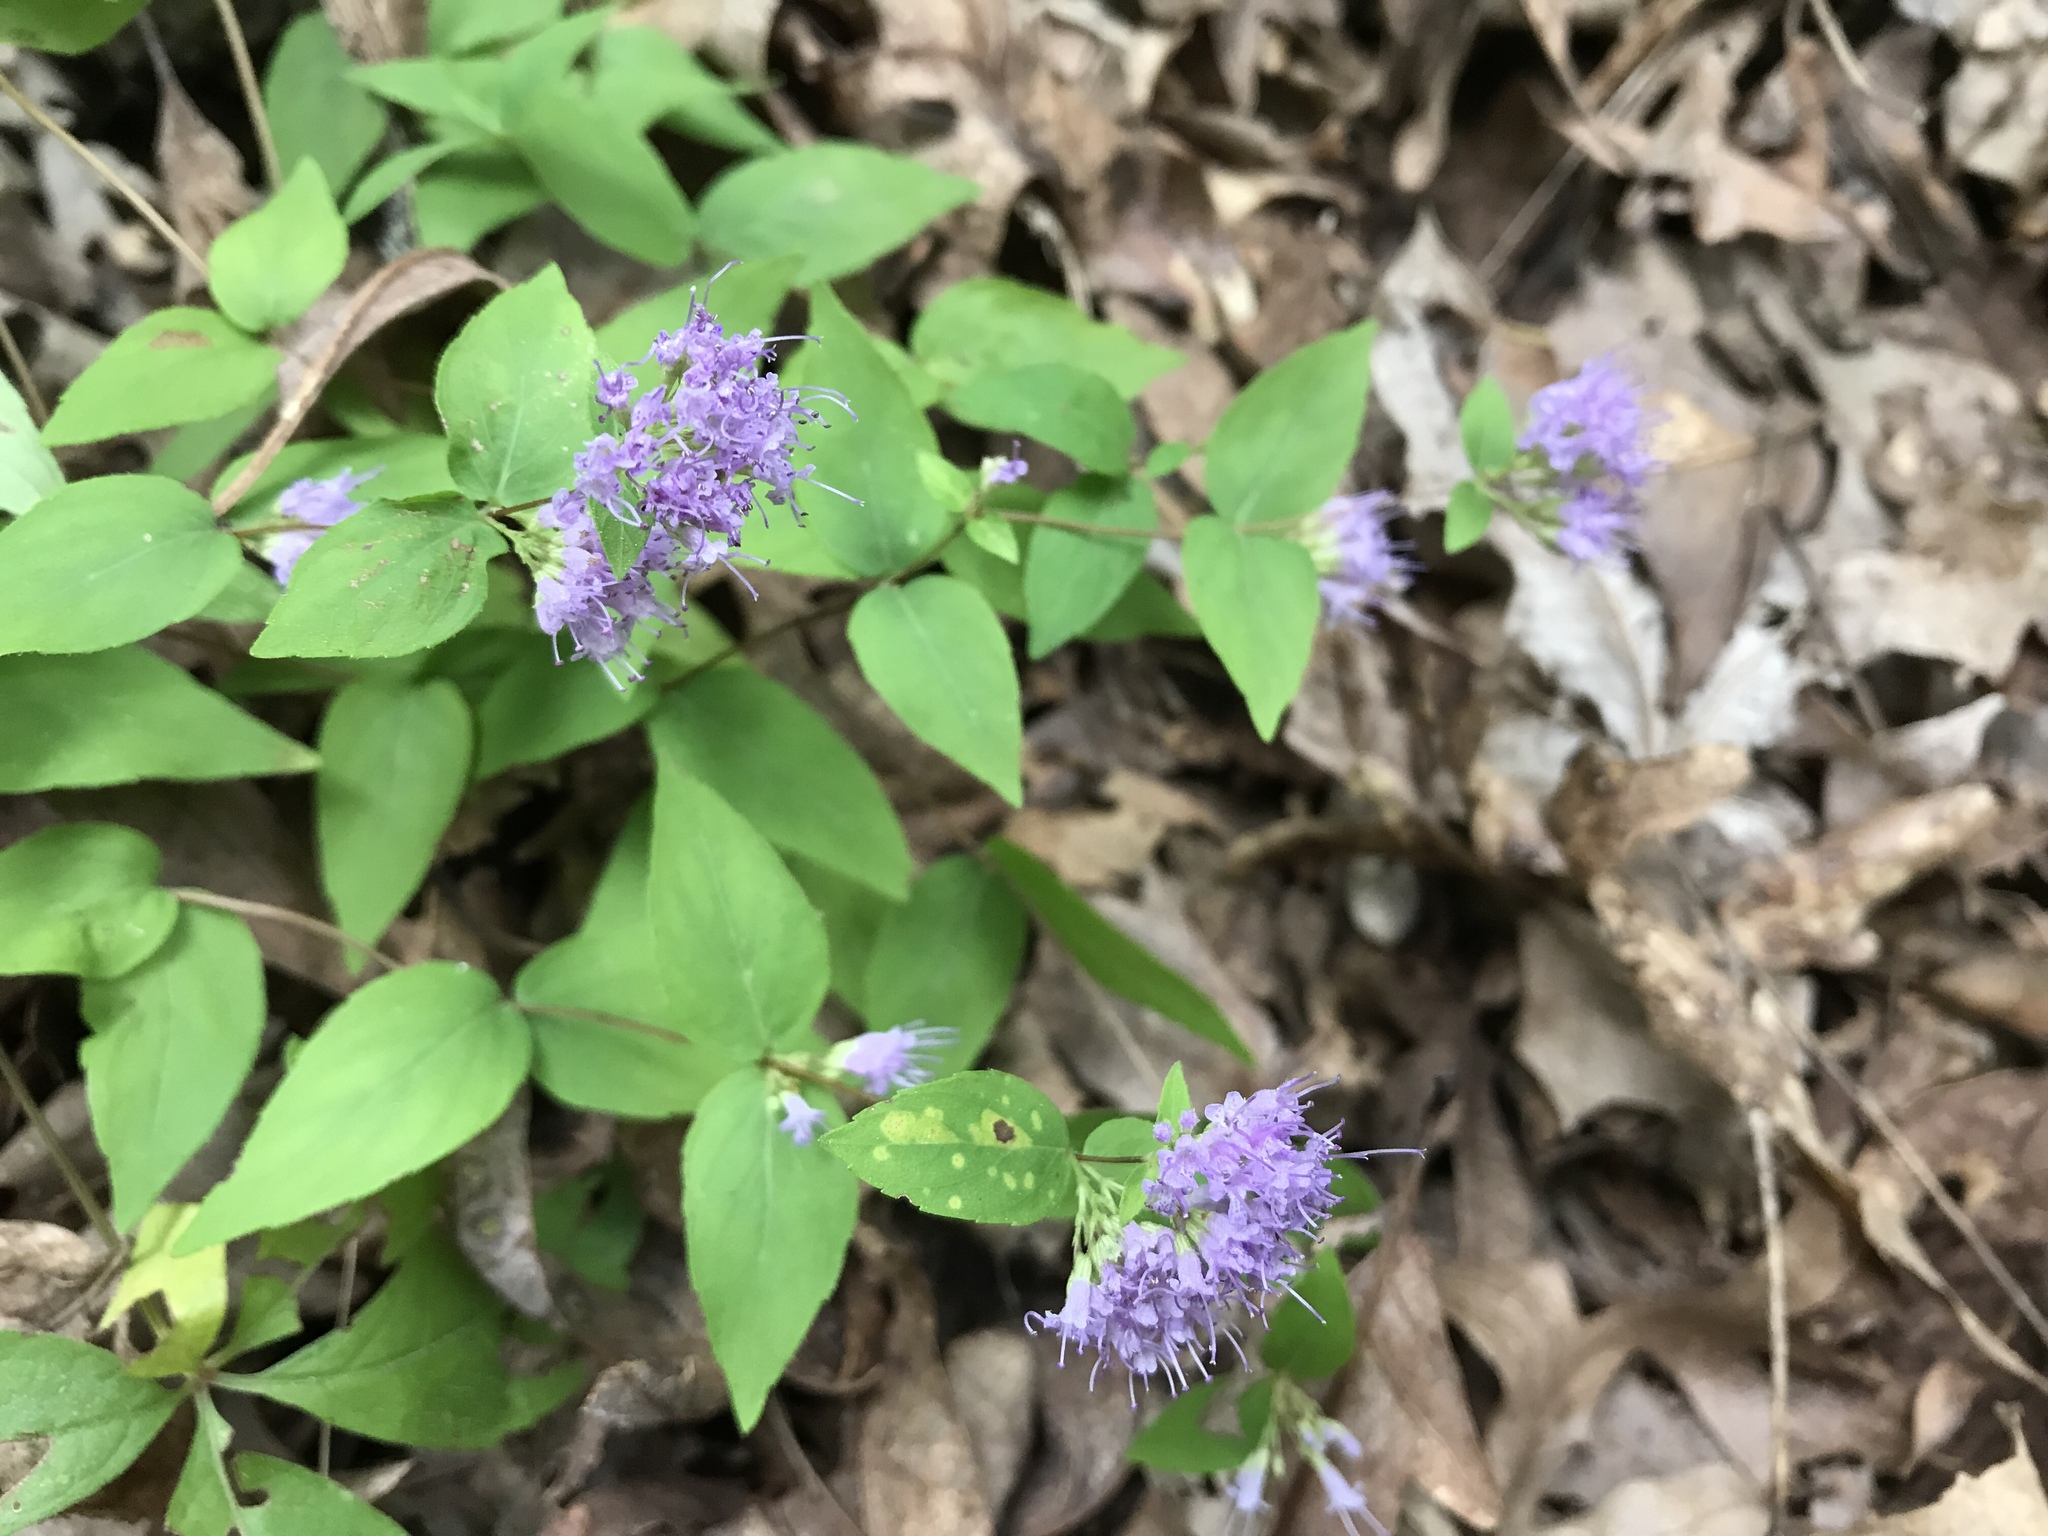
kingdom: Plantae
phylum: Tracheophyta
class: Magnoliopsida
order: Lamiales
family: Lamiaceae
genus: Cunila
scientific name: Cunila origanoides
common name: American dittany
